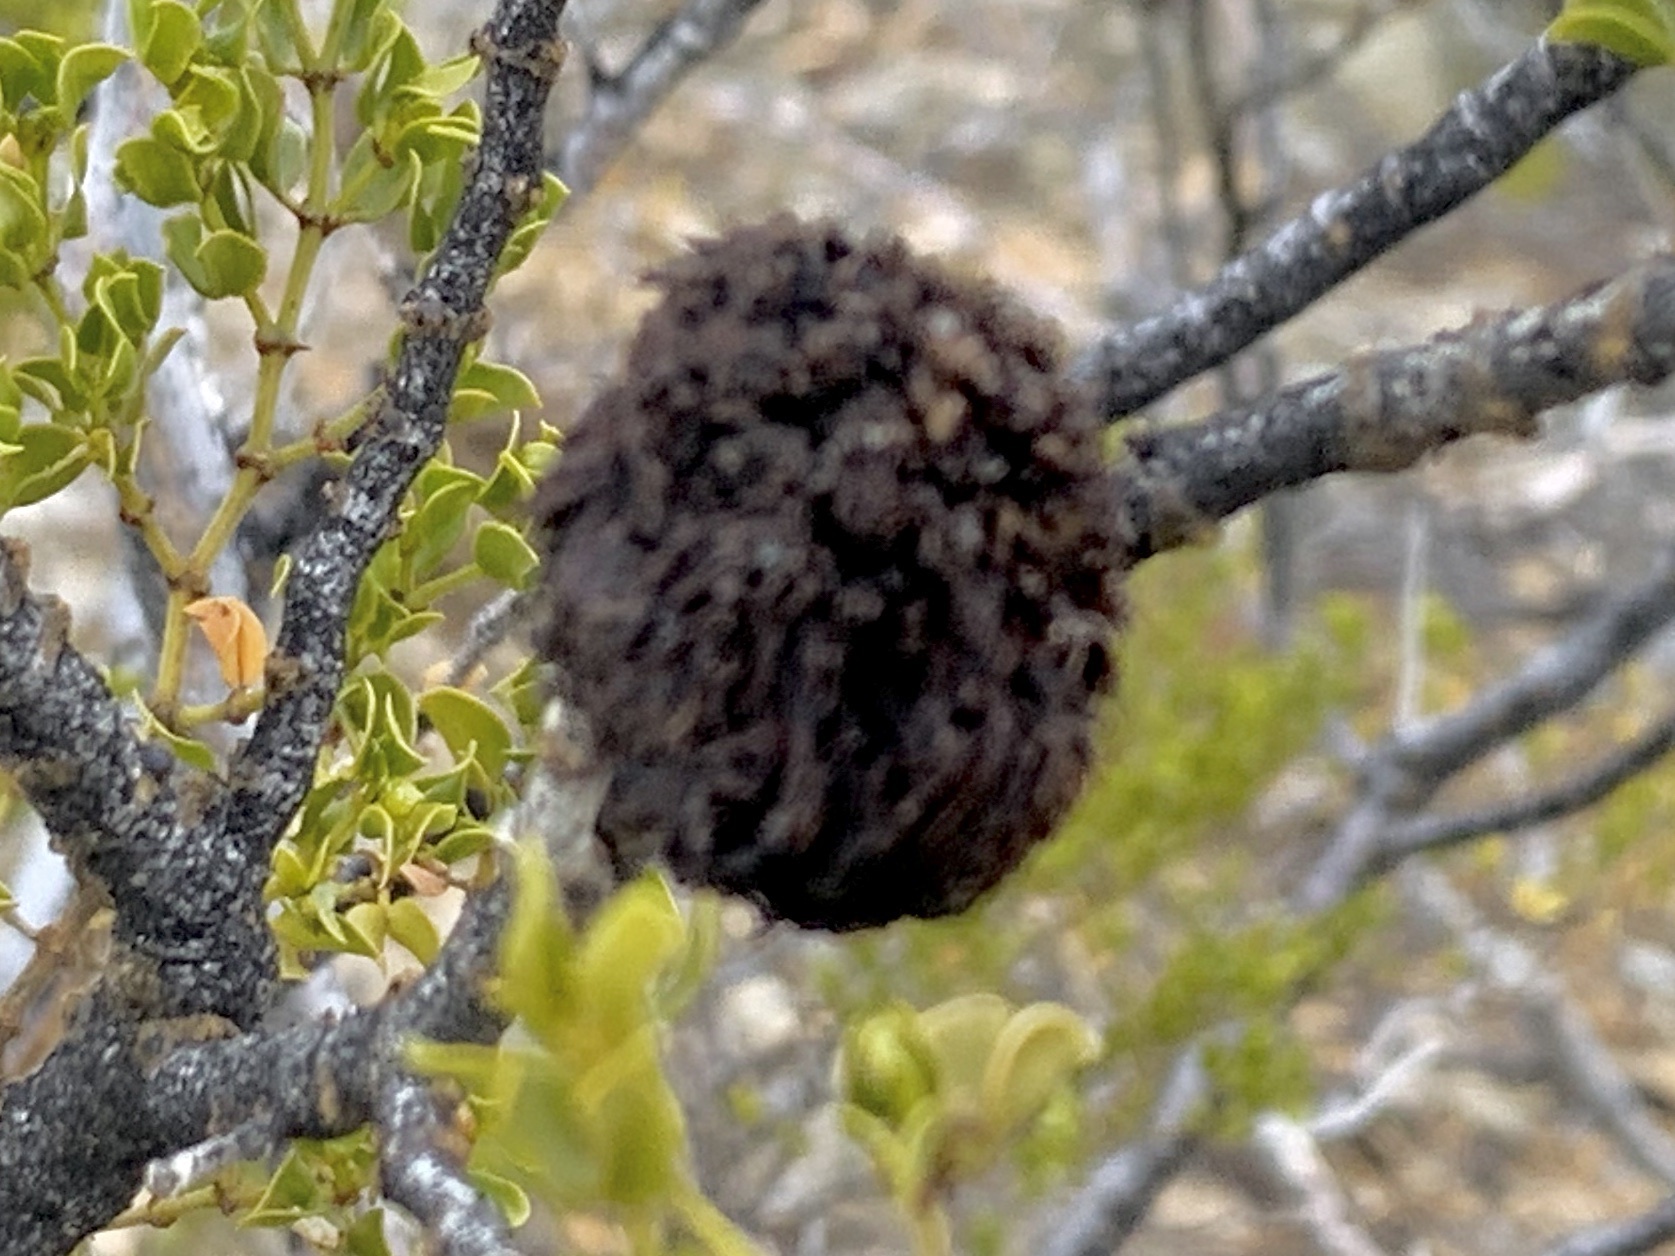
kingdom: Animalia
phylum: Arthropoda
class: Insecta
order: Diptera
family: Cecidomyiidae
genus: Asphondylia
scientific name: Asphondylia auripila
